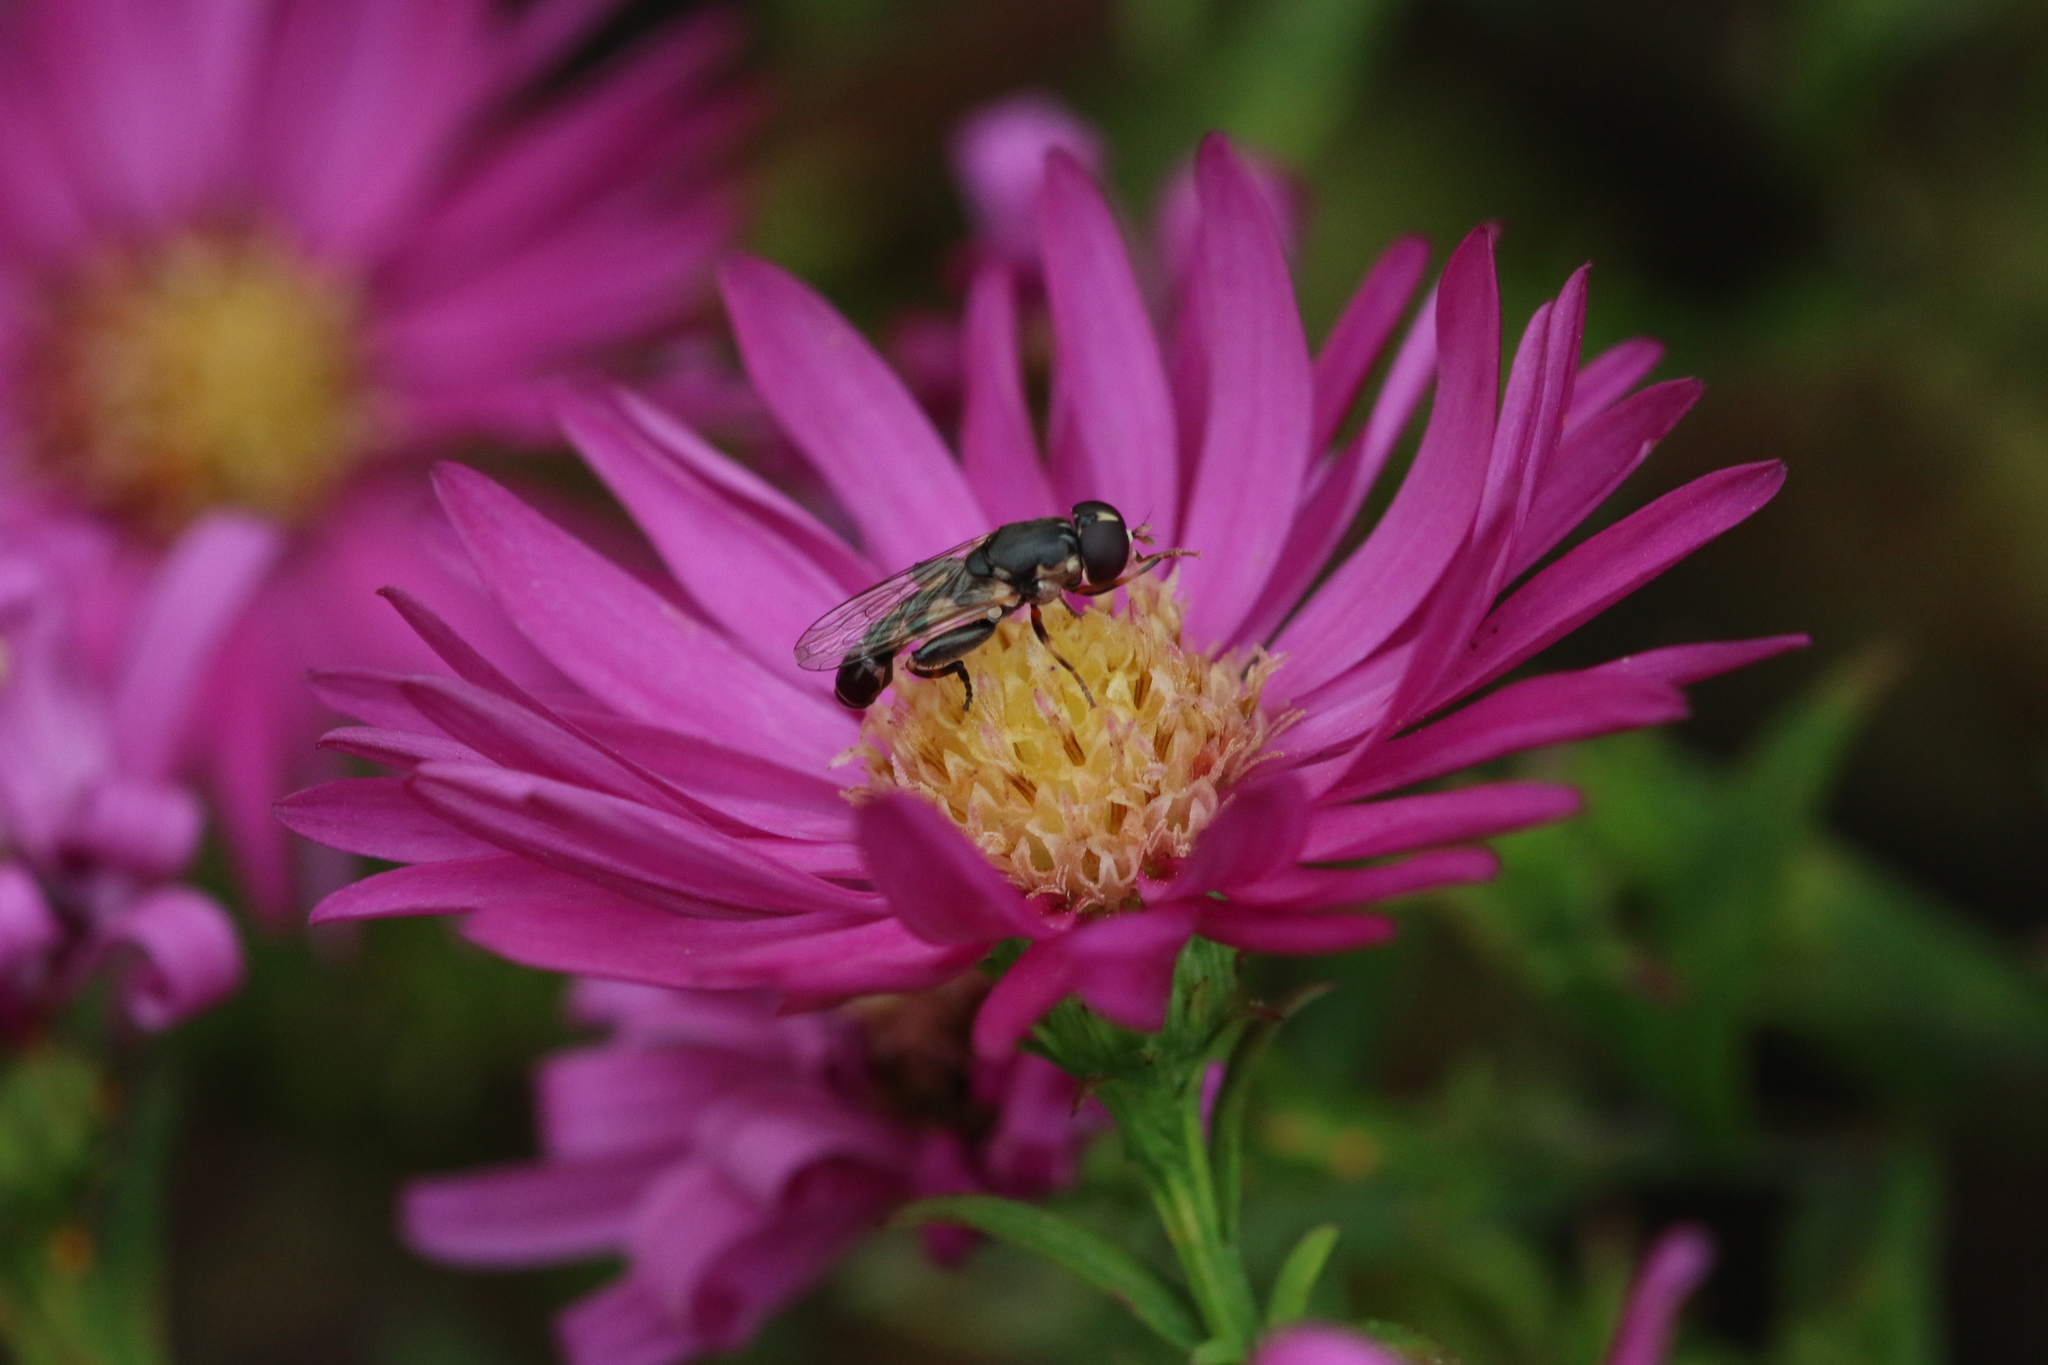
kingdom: Animalia
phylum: Arthropoda
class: Insecta
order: Diptera
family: Syrphidae
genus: Syritta
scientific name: Syritta pipiens
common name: Hover fly
